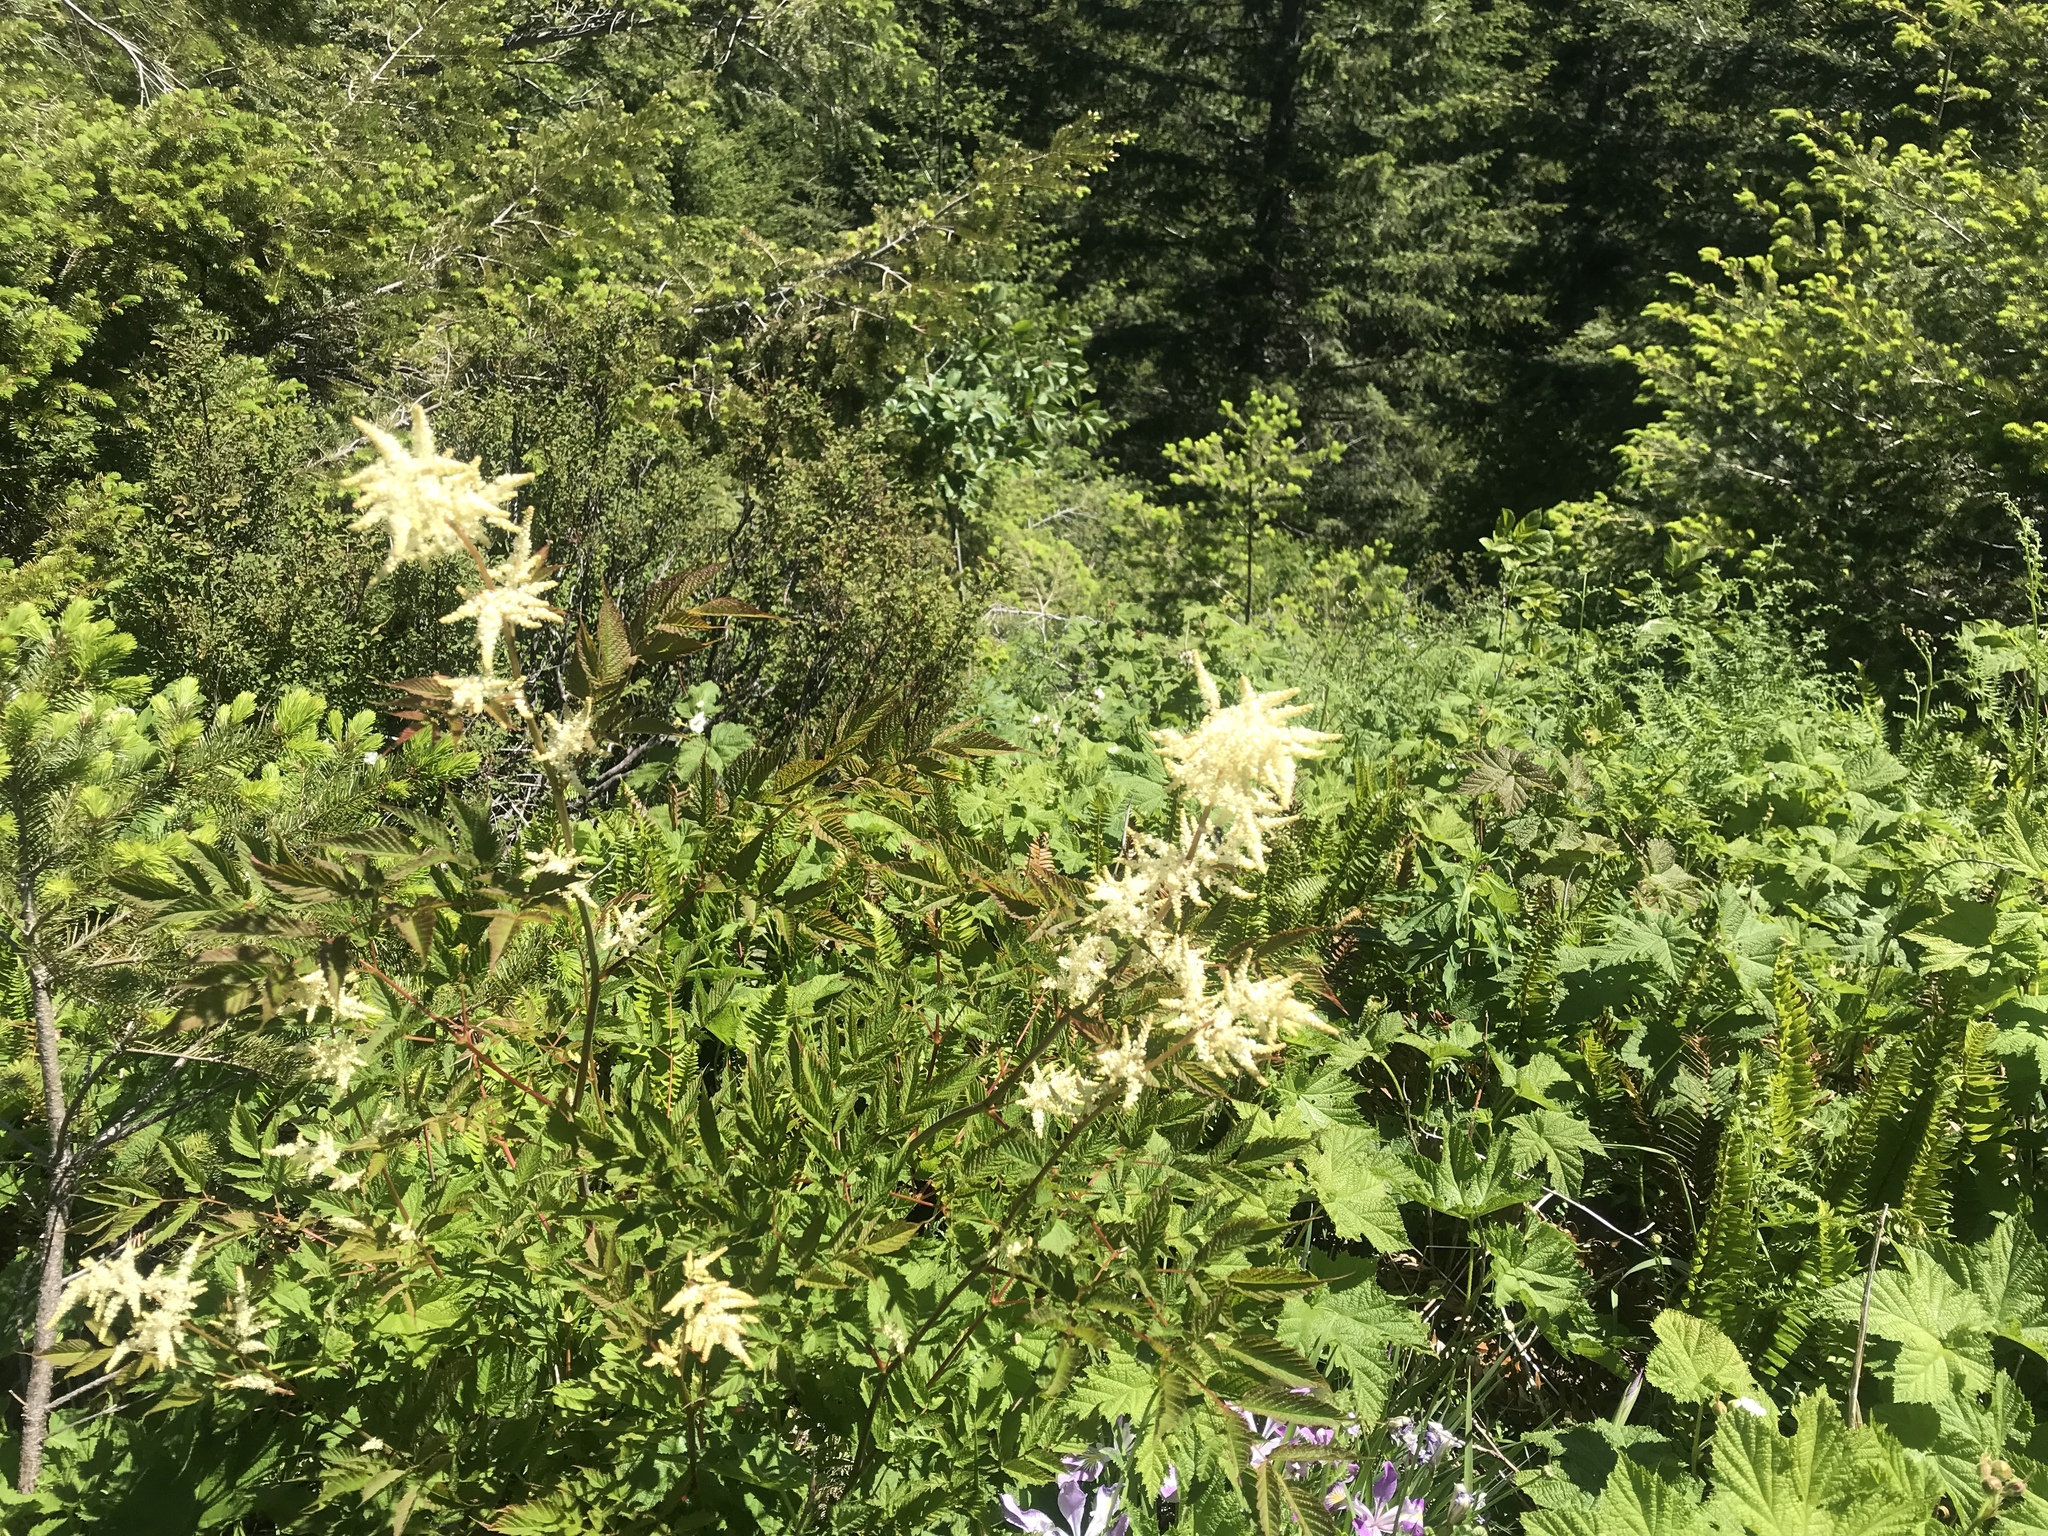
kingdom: Plantae
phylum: Tracheophyta
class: Magnoliopsida
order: Rosales
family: Rosaceae
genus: Aruncus
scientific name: Aruncus dioicus
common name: Buck's-beard
